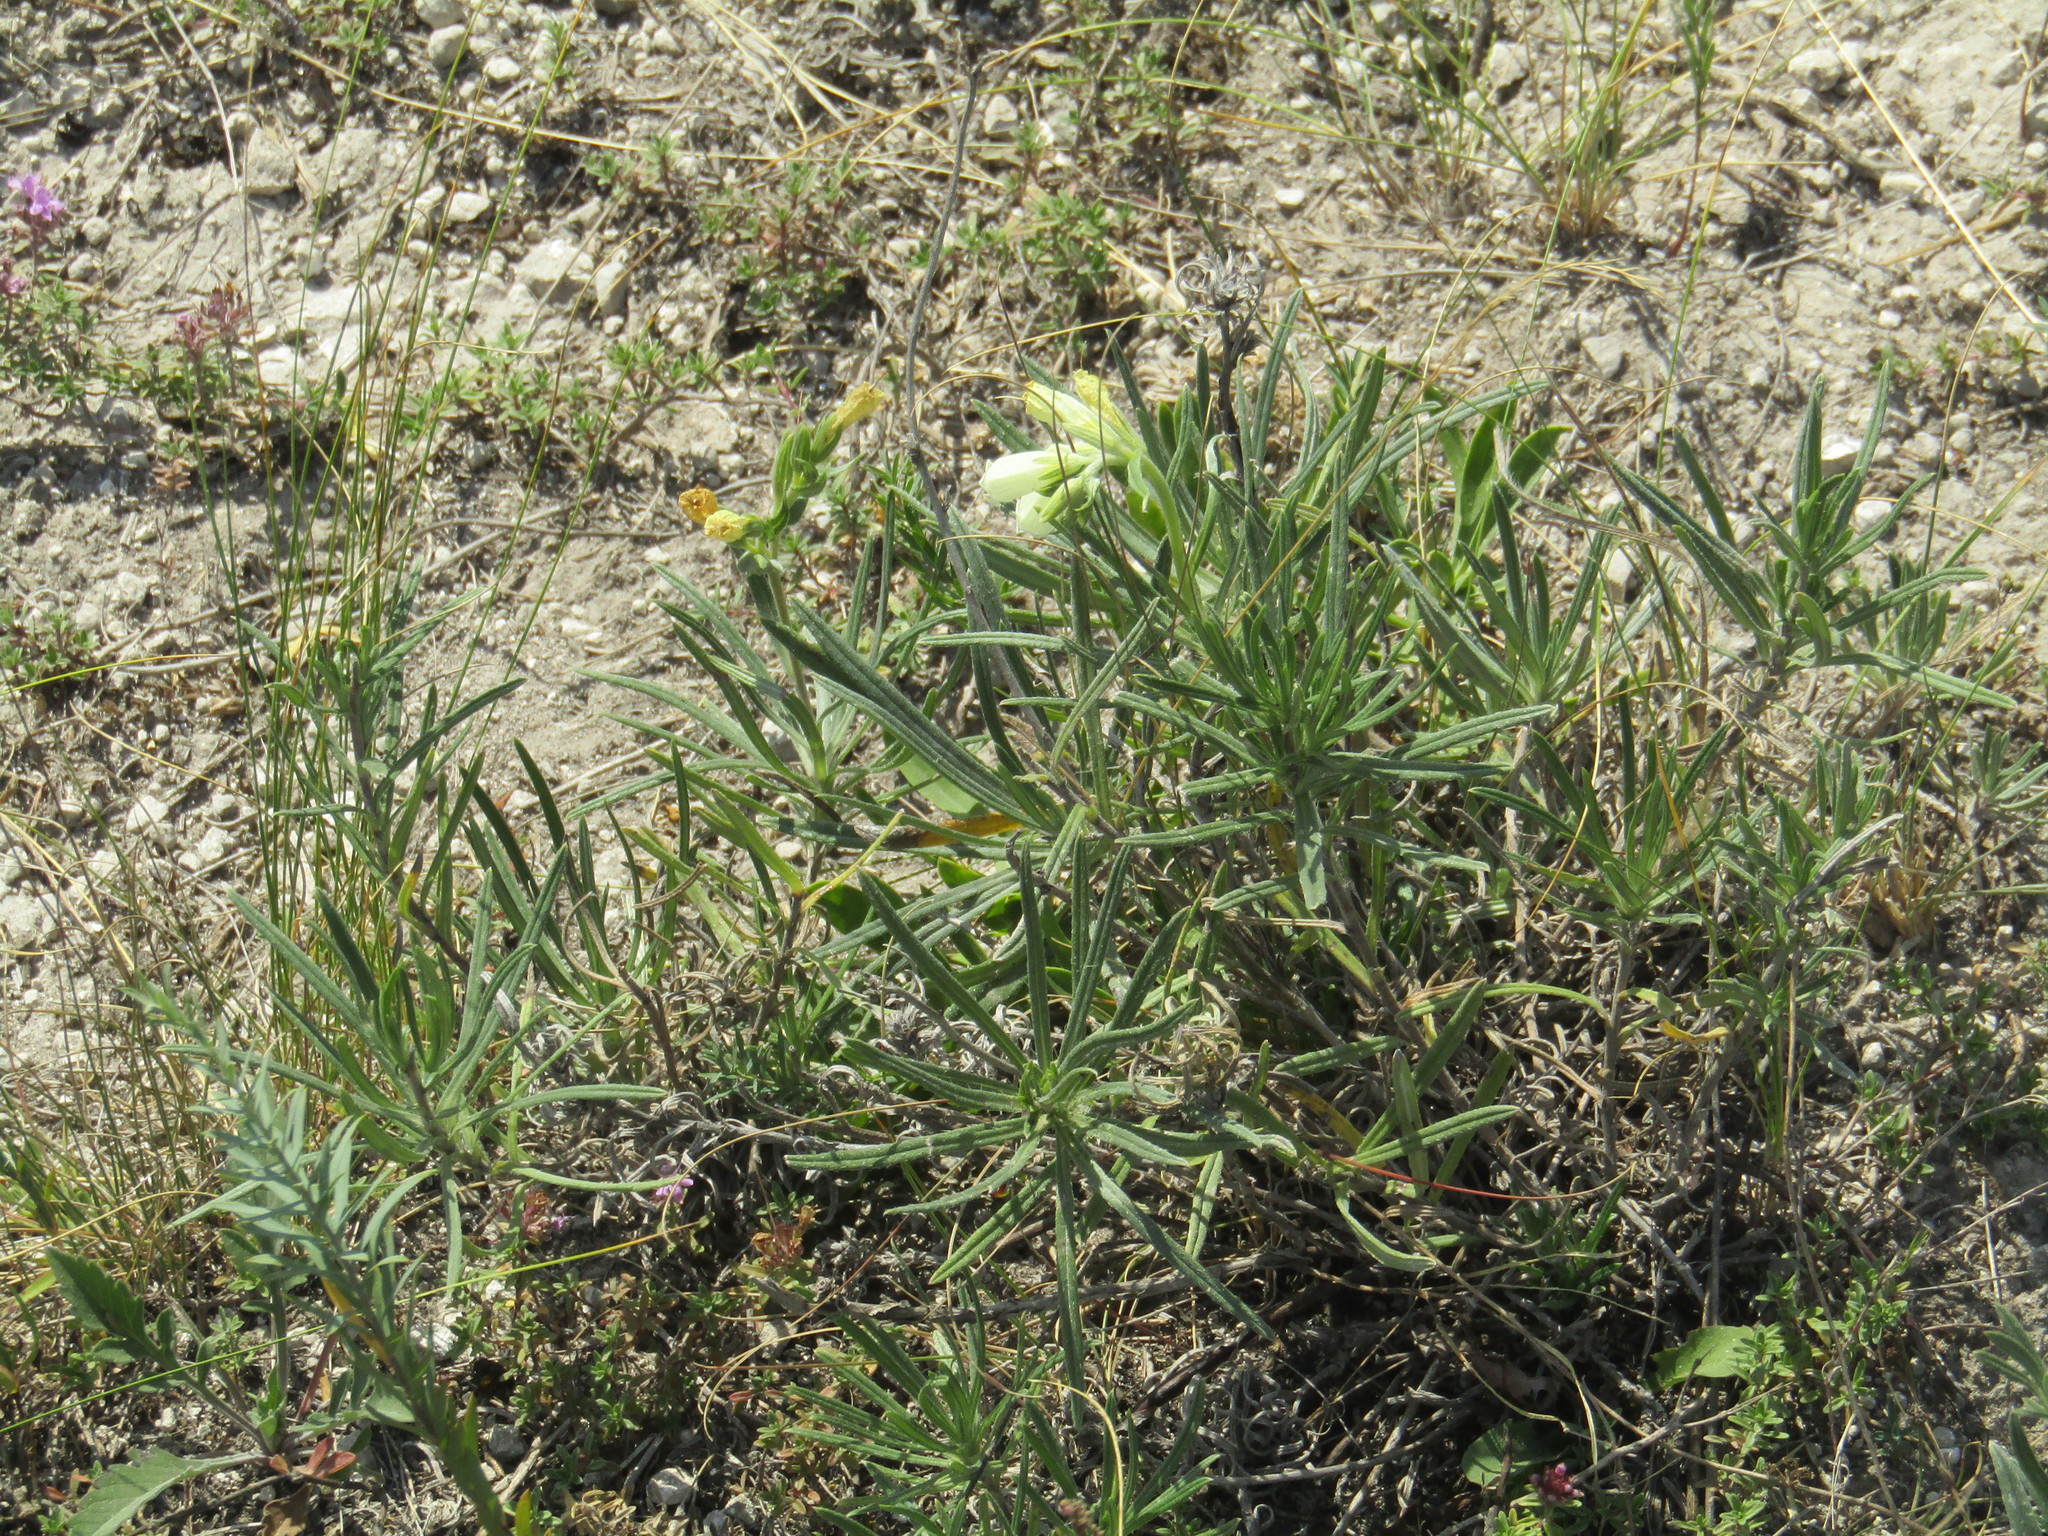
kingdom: Plantae
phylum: Tracheophyta
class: Magnoliopsida
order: Boraginales
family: Boraginaceae
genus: Onosma
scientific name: Onosma simplicissima
